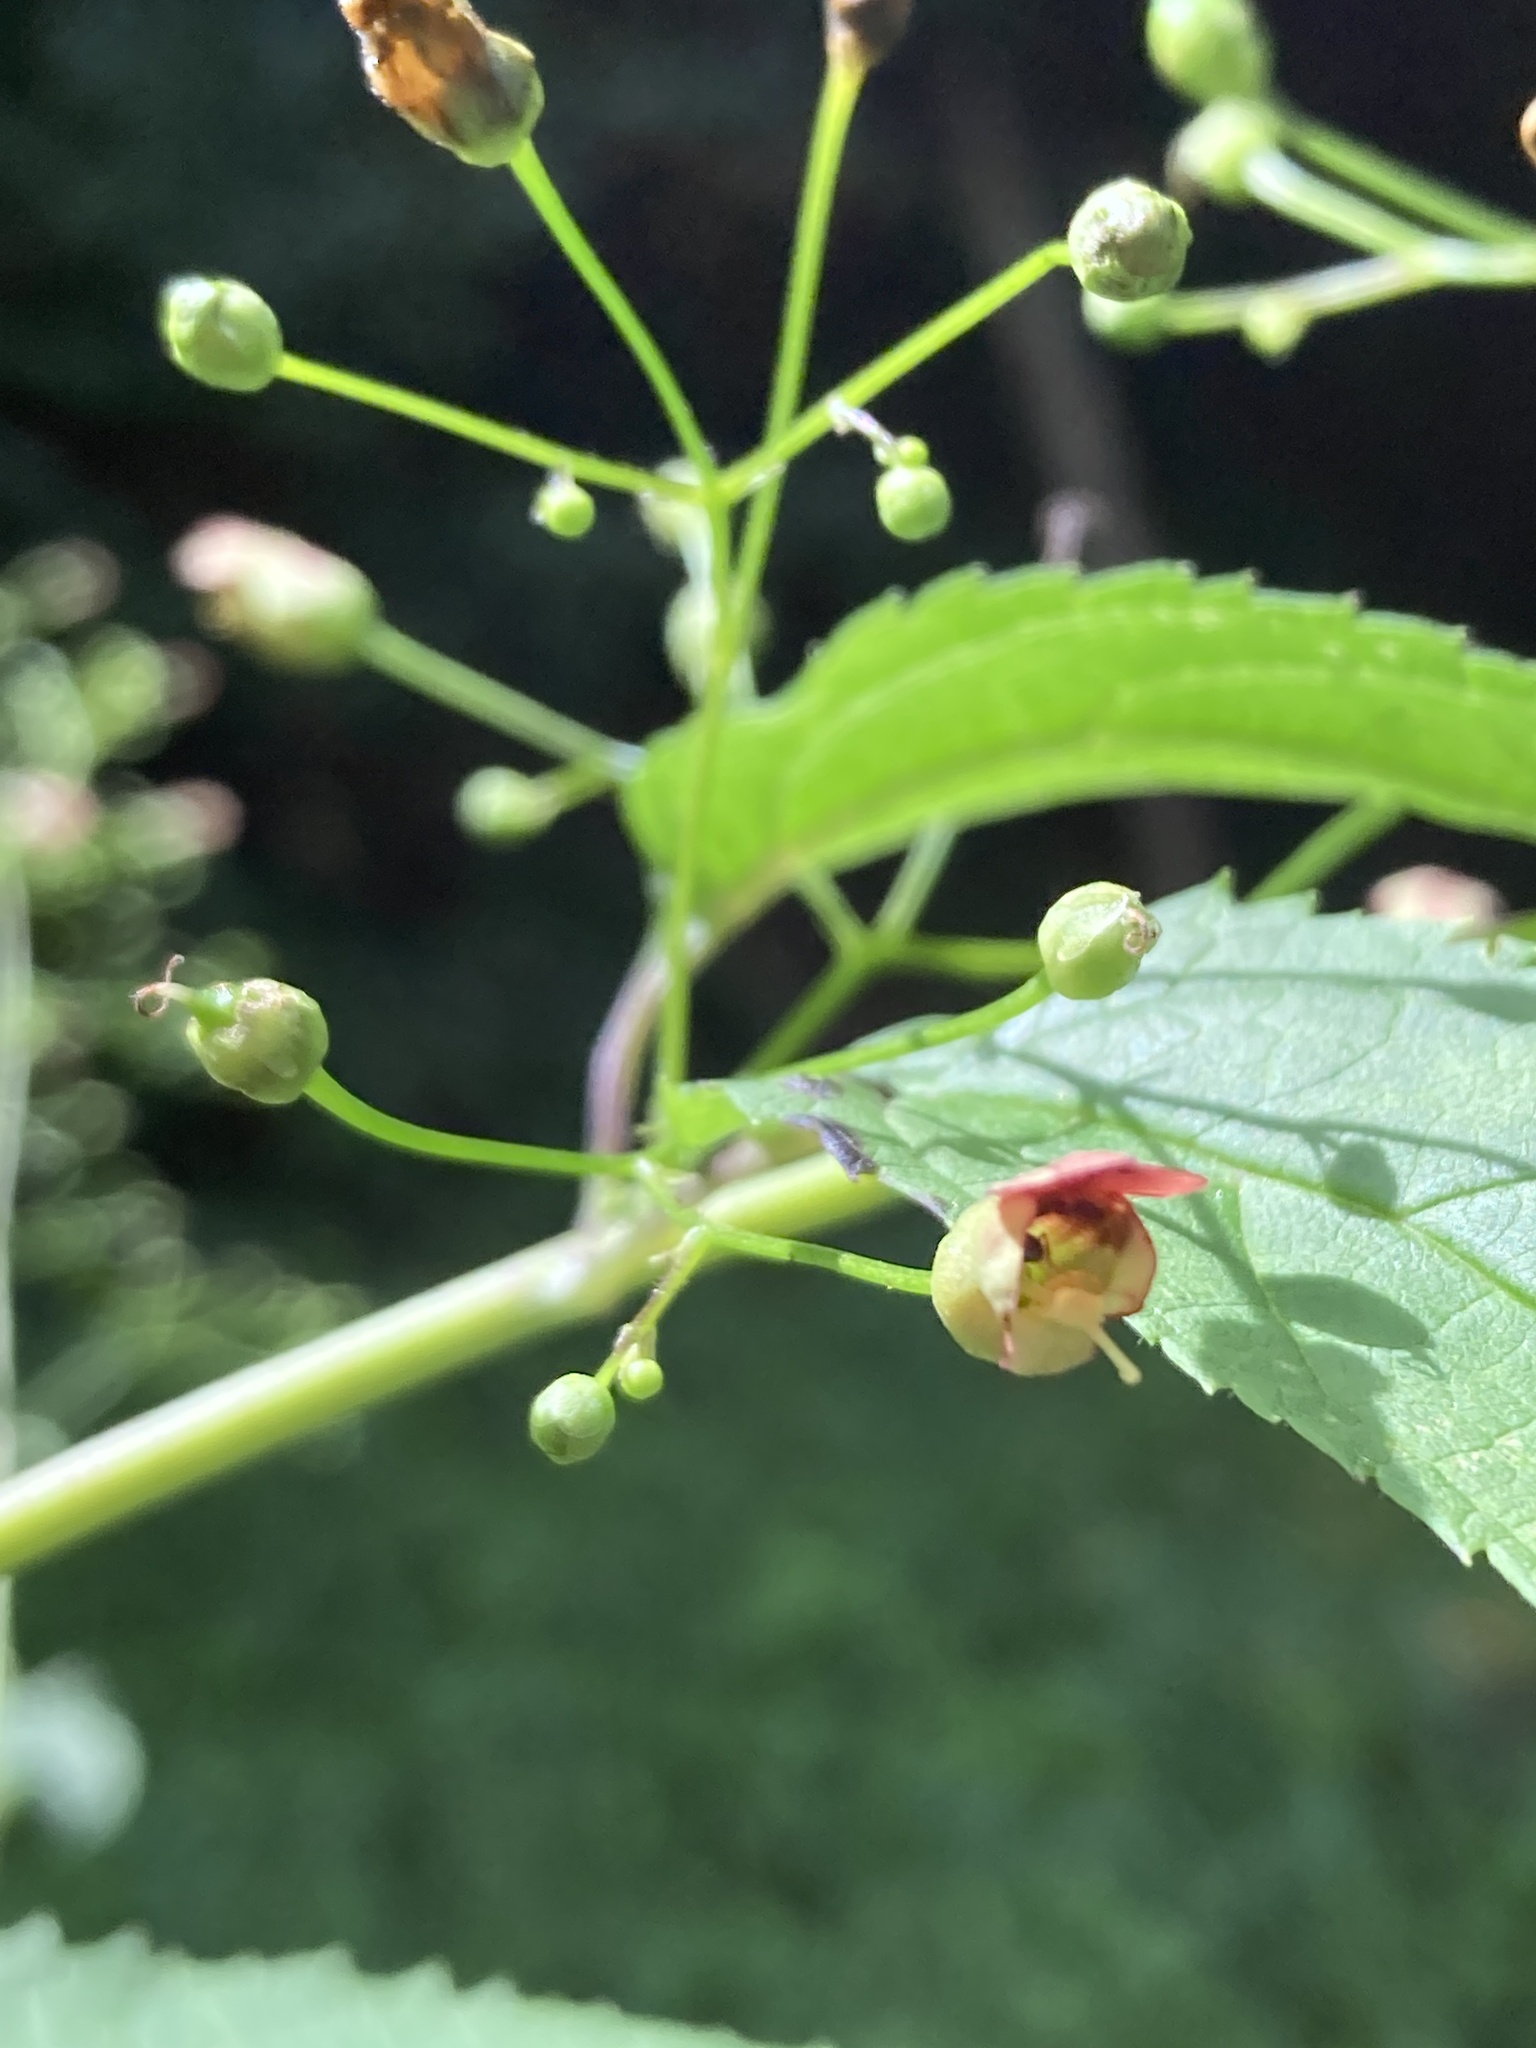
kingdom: Plantae
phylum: Tracheophyta
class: Magnoliopsida
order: Lamiales
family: Scrophulariaceae
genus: Scrophularia
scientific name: Scrophularia marilandica
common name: Eastern figwort
